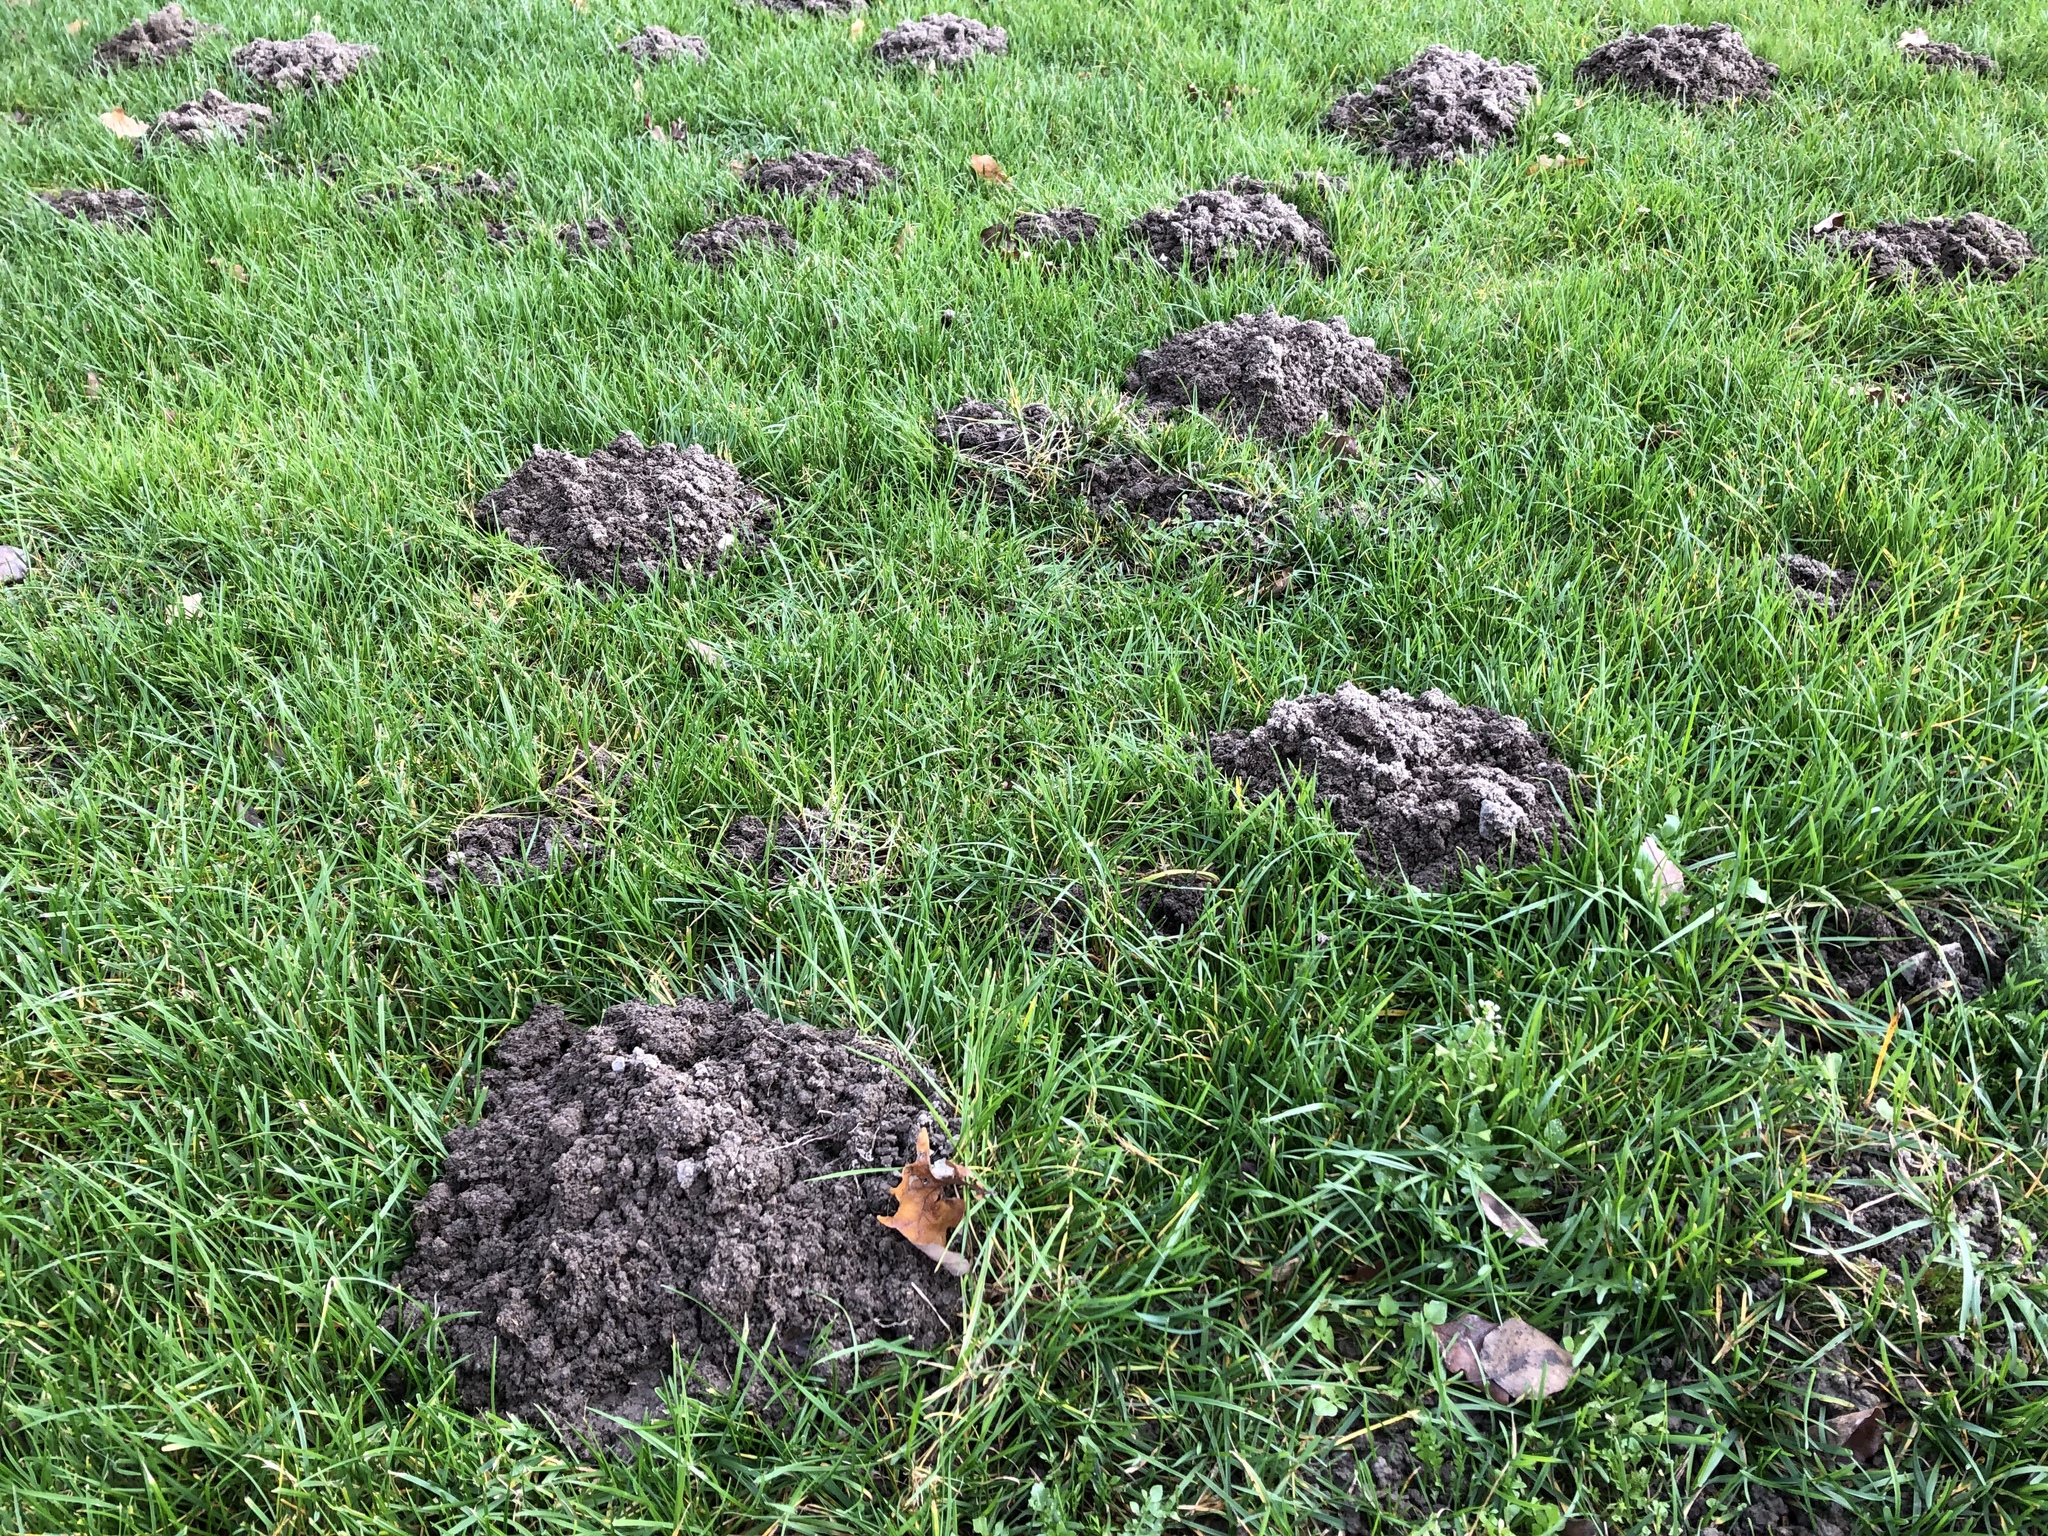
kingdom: Animalia
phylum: Chordata
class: Mammalia
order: Soricomorpha
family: Talpidae
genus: Talpa
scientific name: Talpa europaea
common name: European mole
